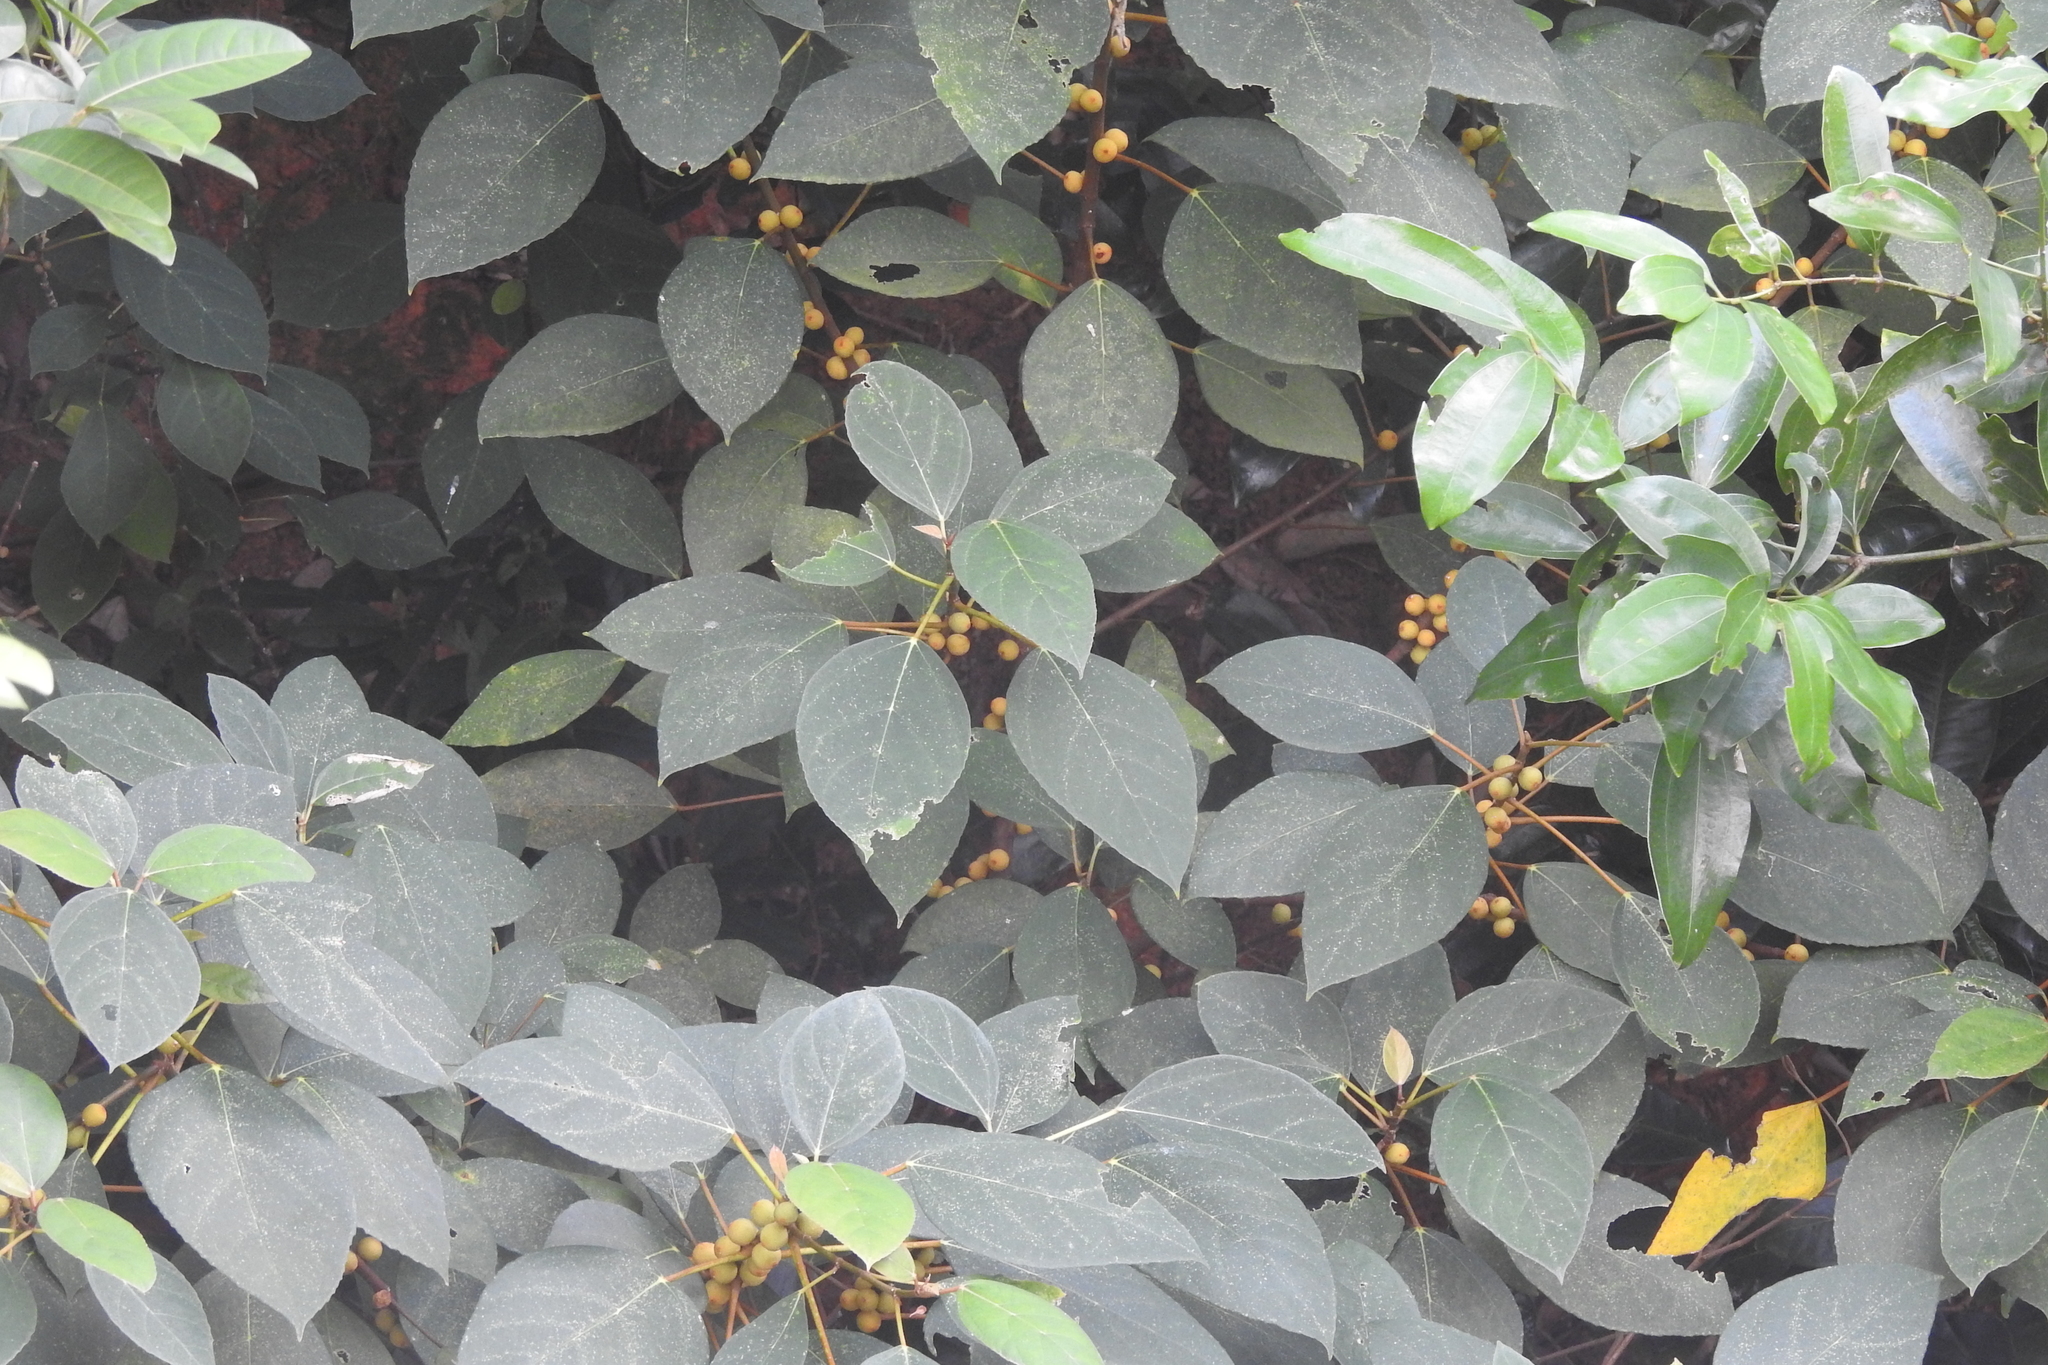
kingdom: Plantae
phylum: Tracheophyta
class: Magnoliopsida
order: Rosales
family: Moraceae
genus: Ficus
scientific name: Ficus grossularioides
